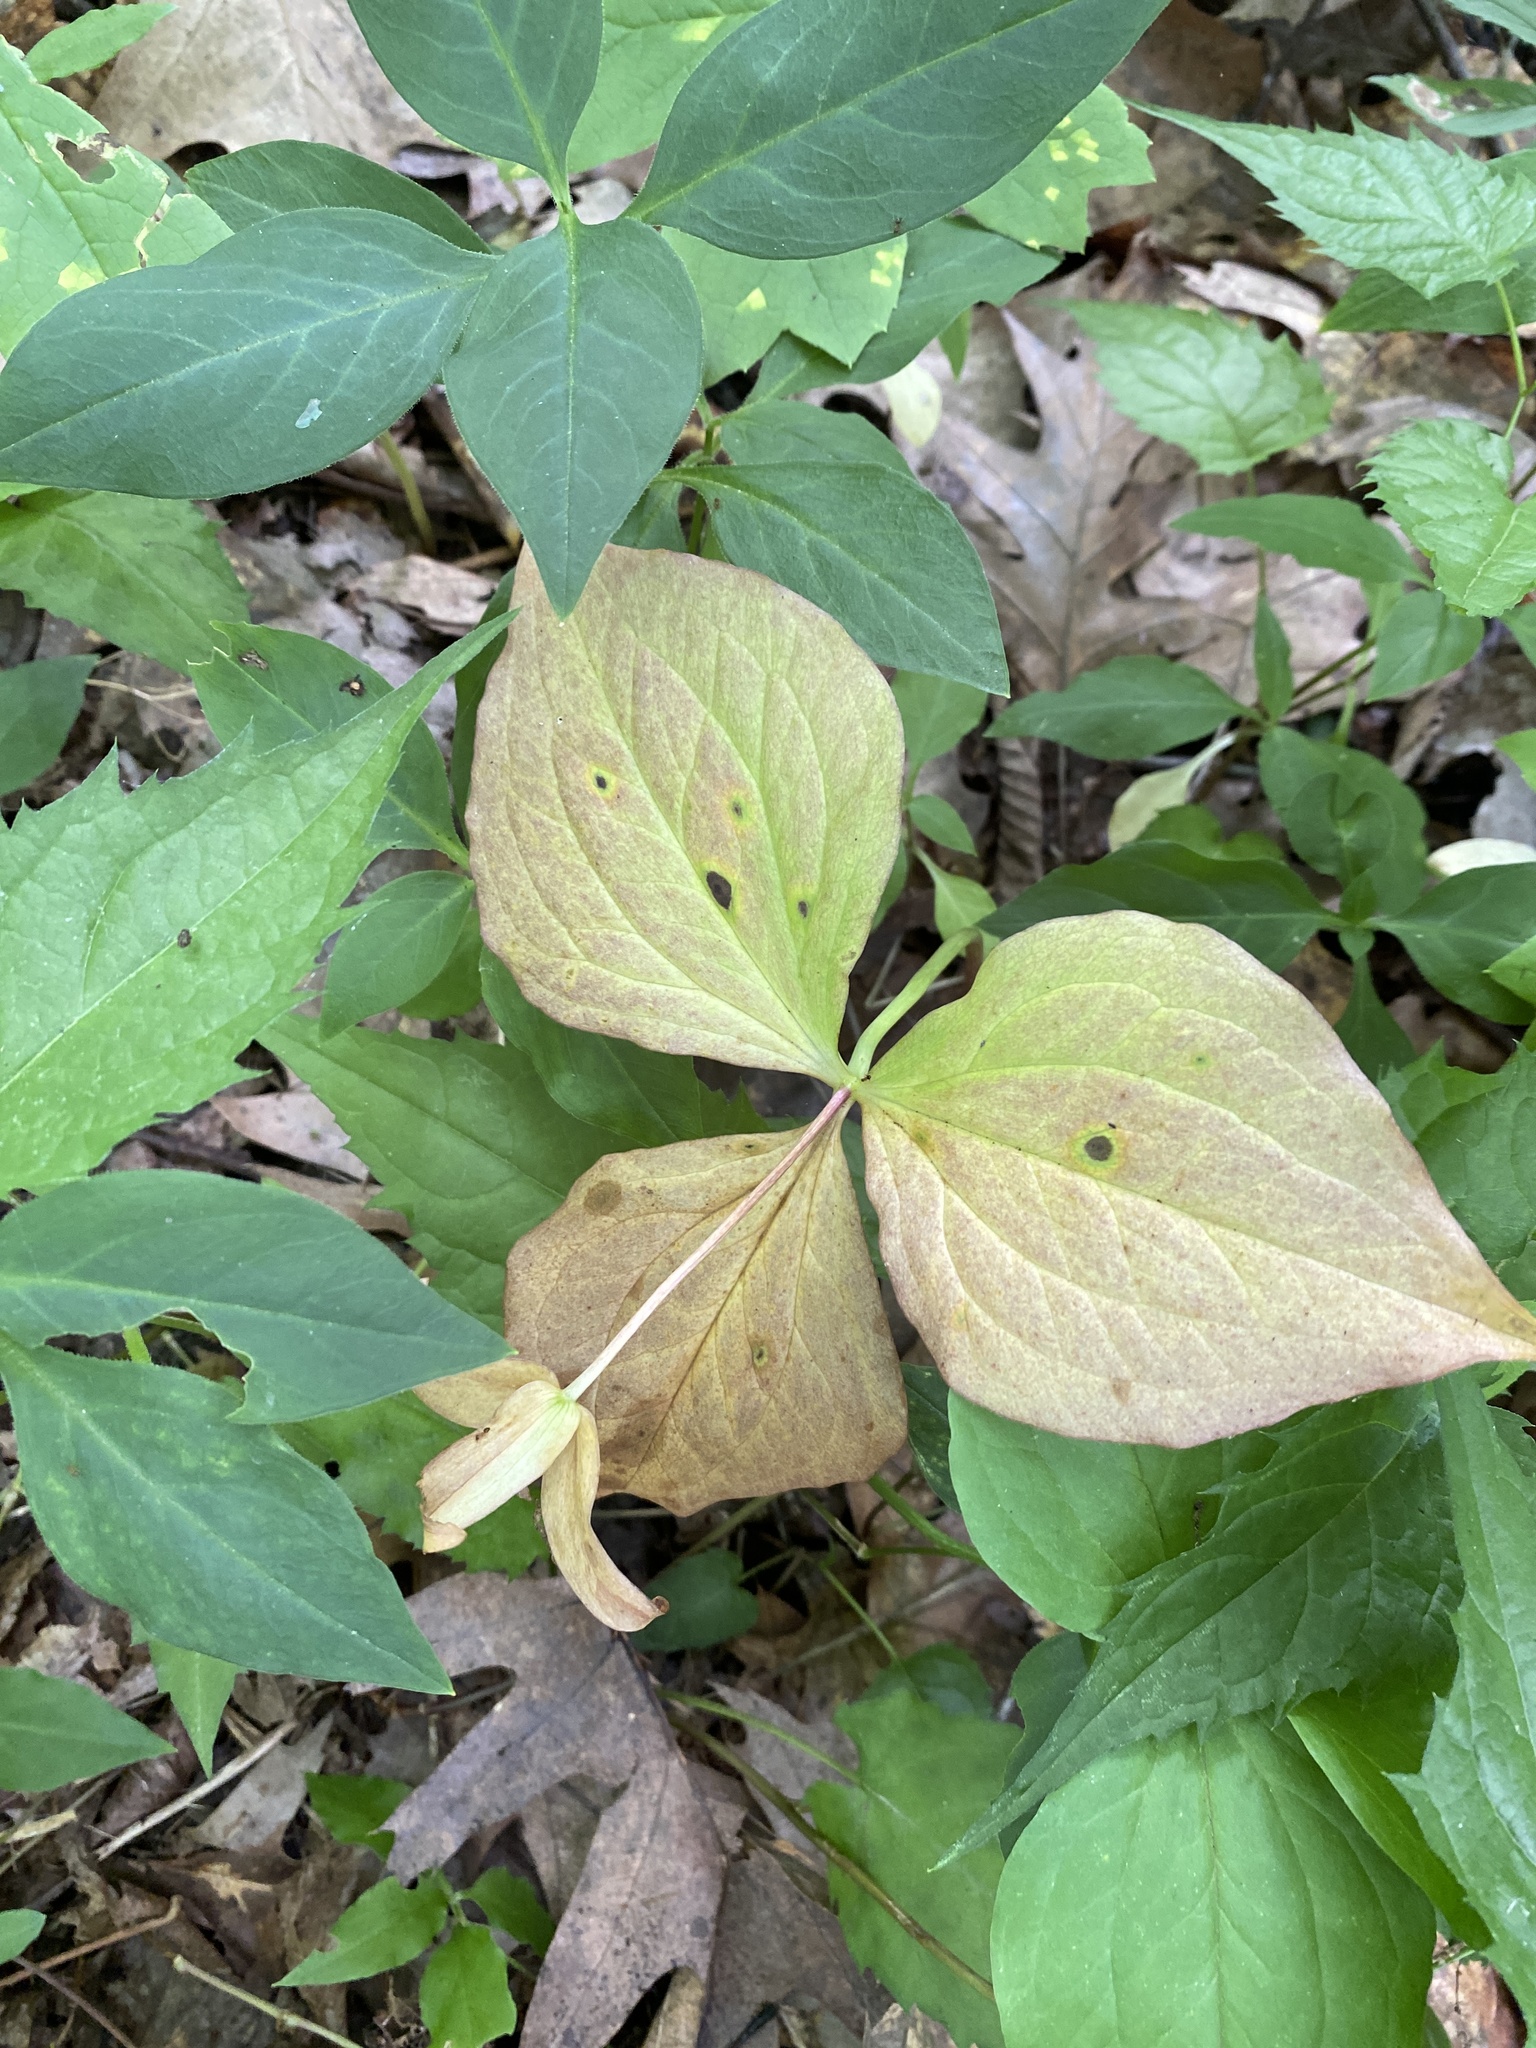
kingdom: Plantae
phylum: Tracheophyta
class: Liliopsida
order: Liliales
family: Melanthiaceae
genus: Trillium
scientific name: Trillium grandiflorum
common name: Great white trillium
